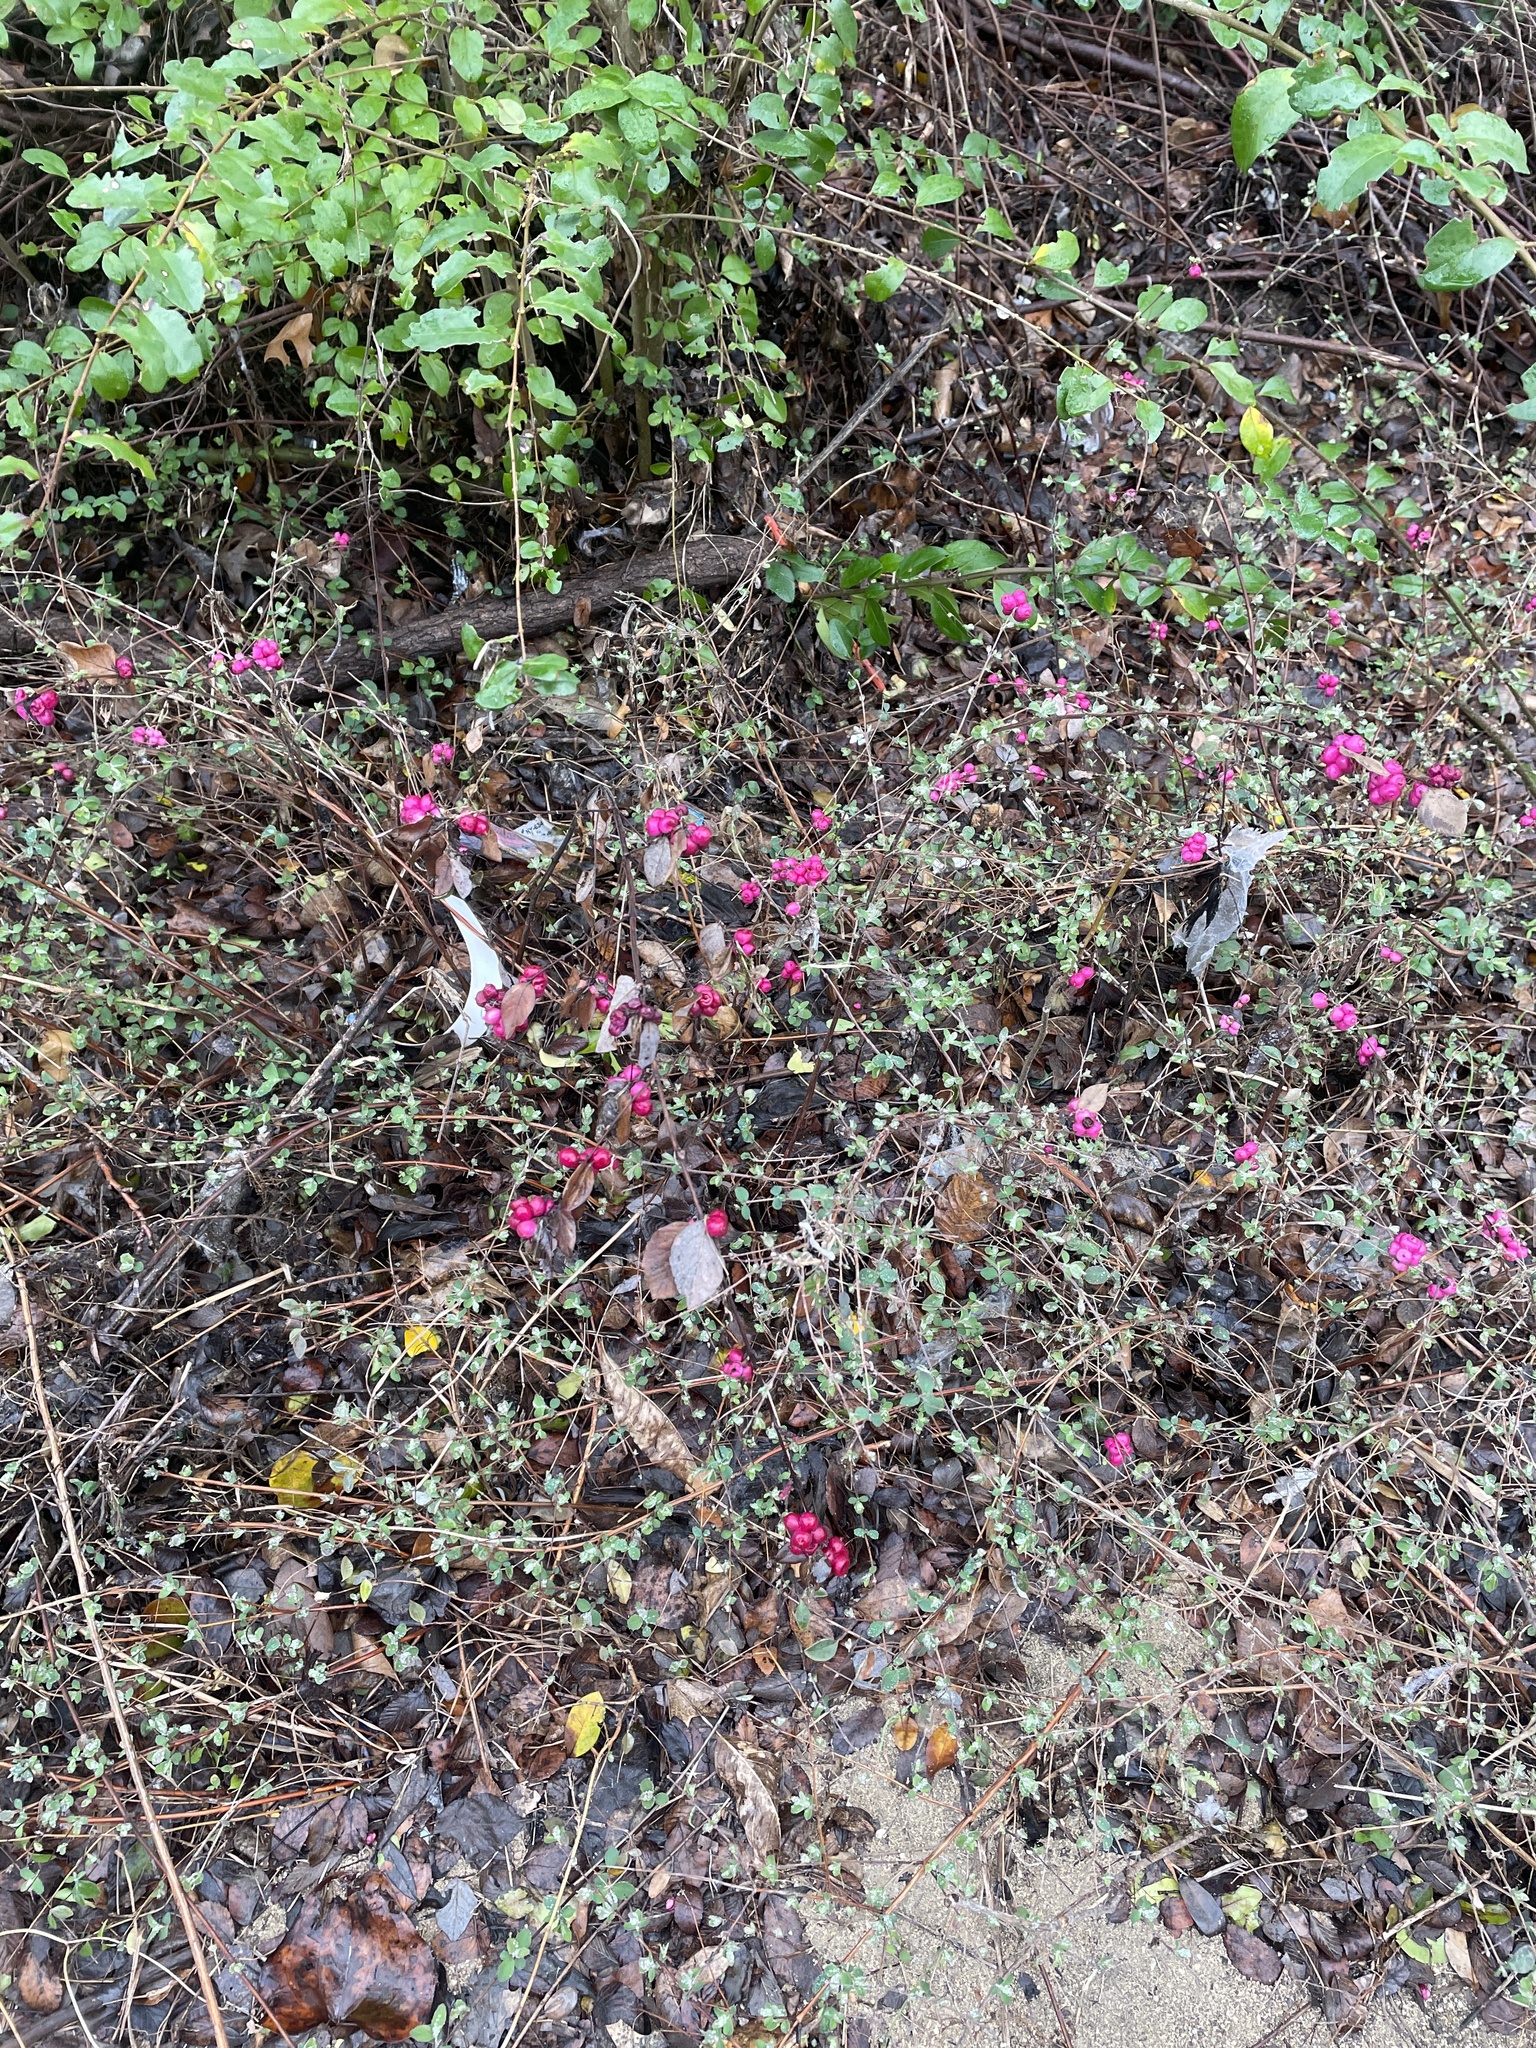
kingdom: Plantae
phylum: Tracheophyta
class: Magnoliopsida
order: Dipsacales
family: Caprifoliaceae
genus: Symphoricarpos
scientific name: Symphoricarpos orbiculatus
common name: Coralberry
